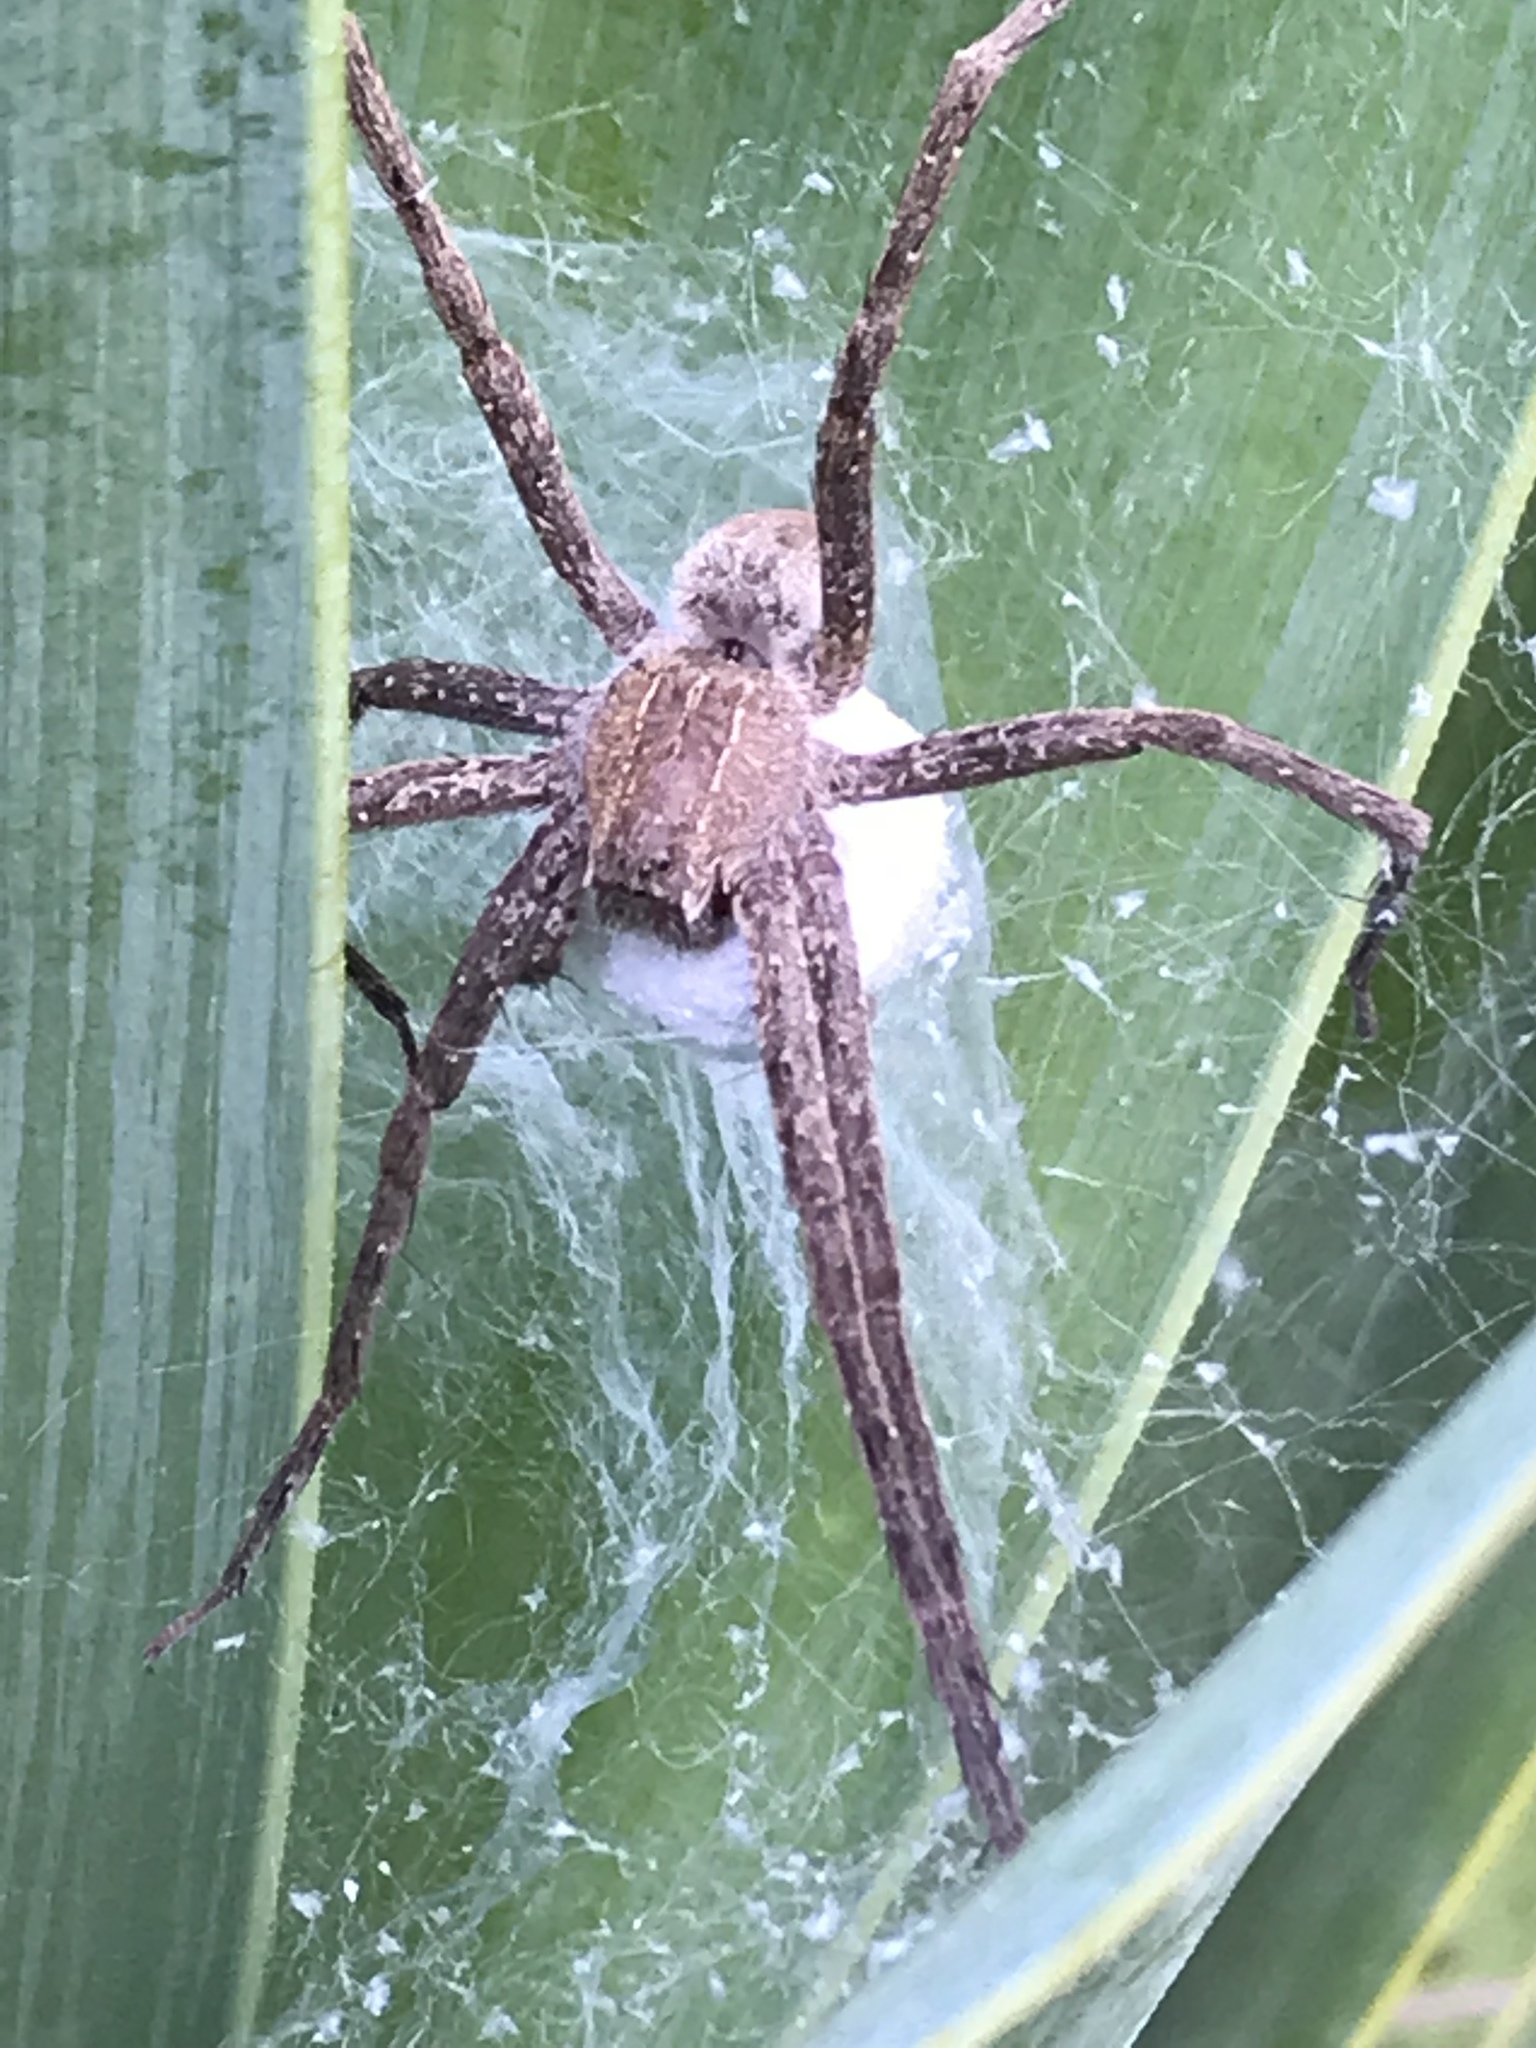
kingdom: Animalia
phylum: Arthropoda
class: Arachnida
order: Araneae
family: Pisauridae
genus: Pisaurina
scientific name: Pisaurina mira
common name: American nursery web spider
